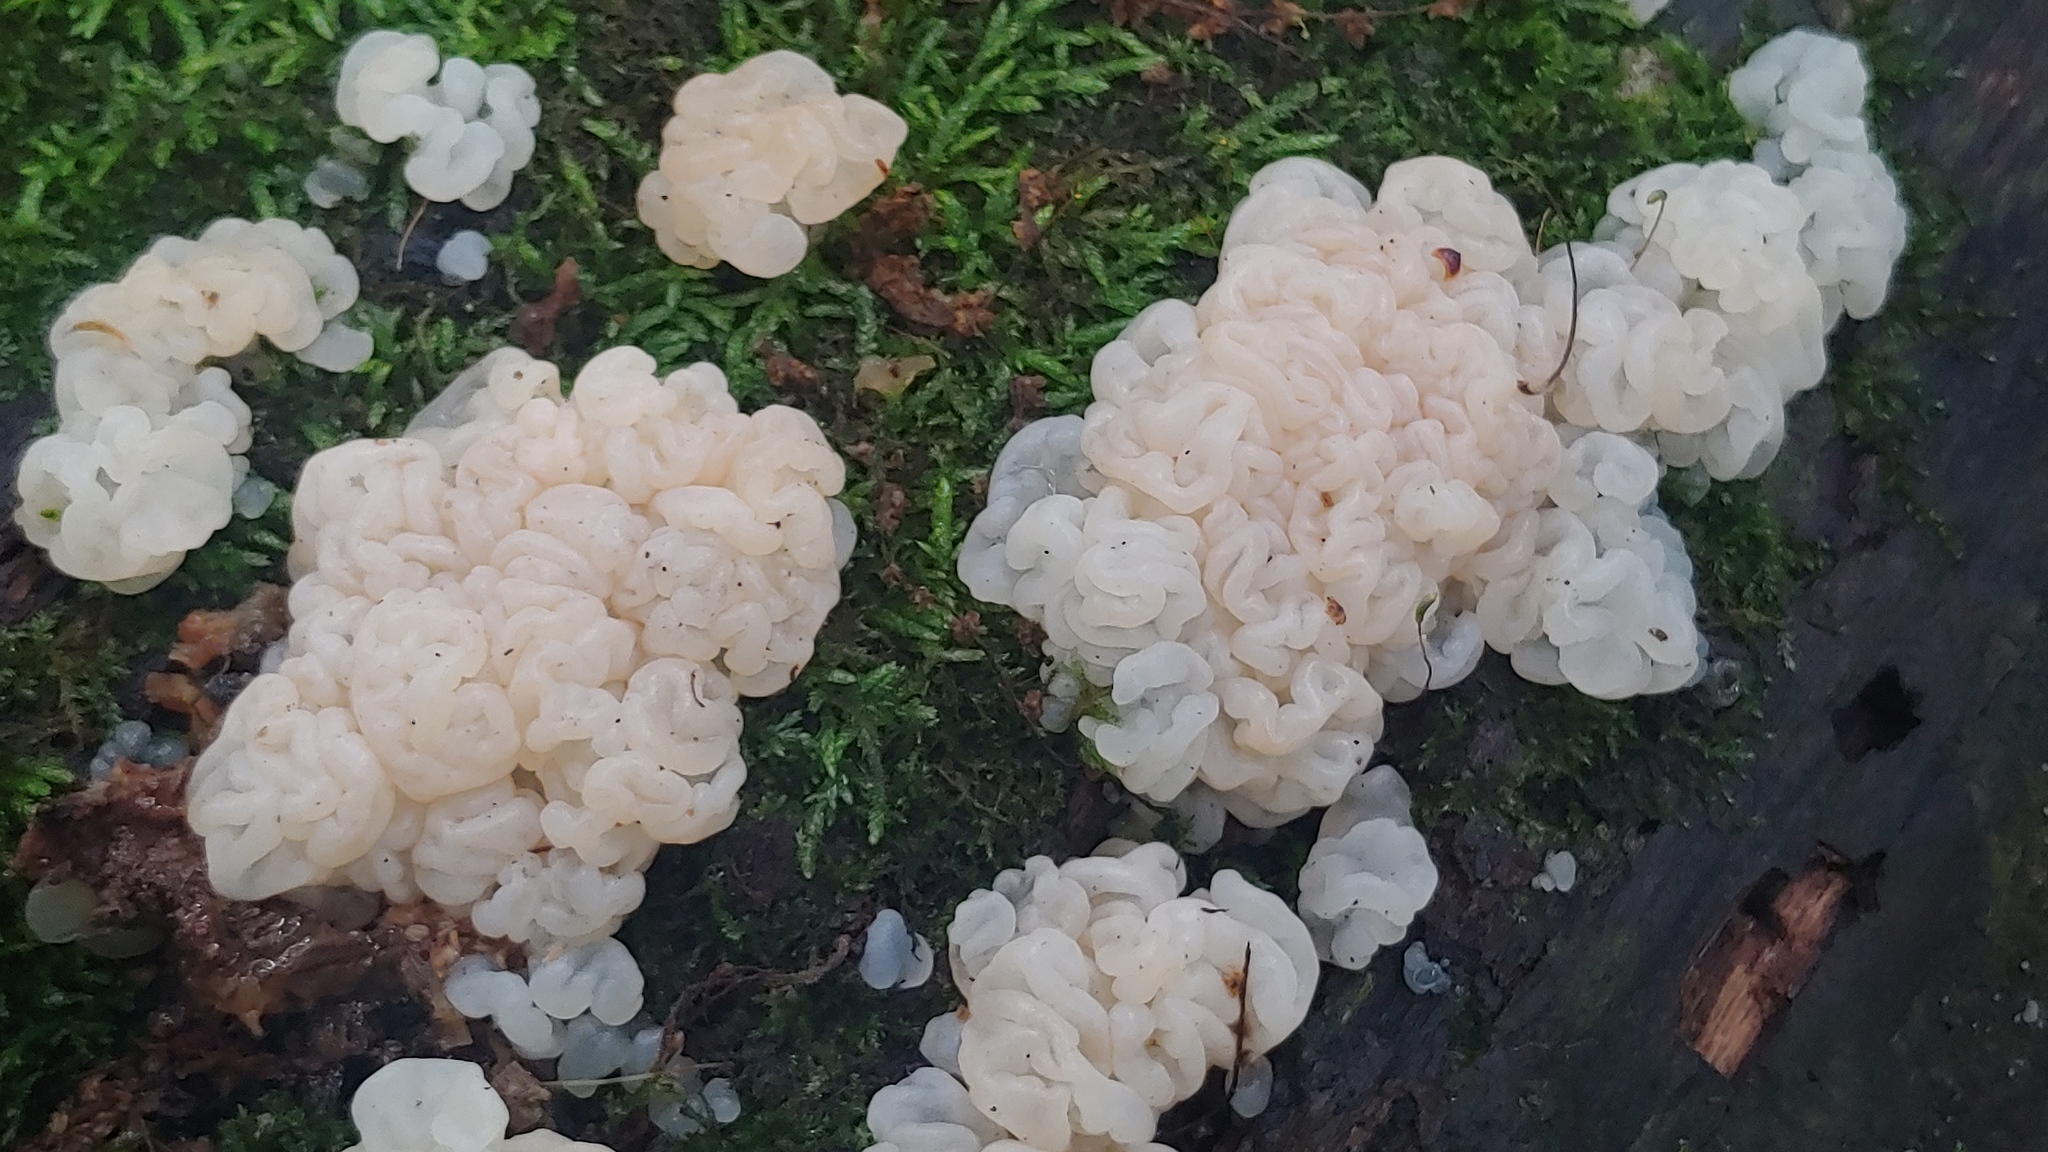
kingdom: Fungi
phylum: Basidiomycota
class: Agaricomycetes
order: Auriculariales
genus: Ductifera
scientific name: Ductifera pululahuana
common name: White jelly fungus
